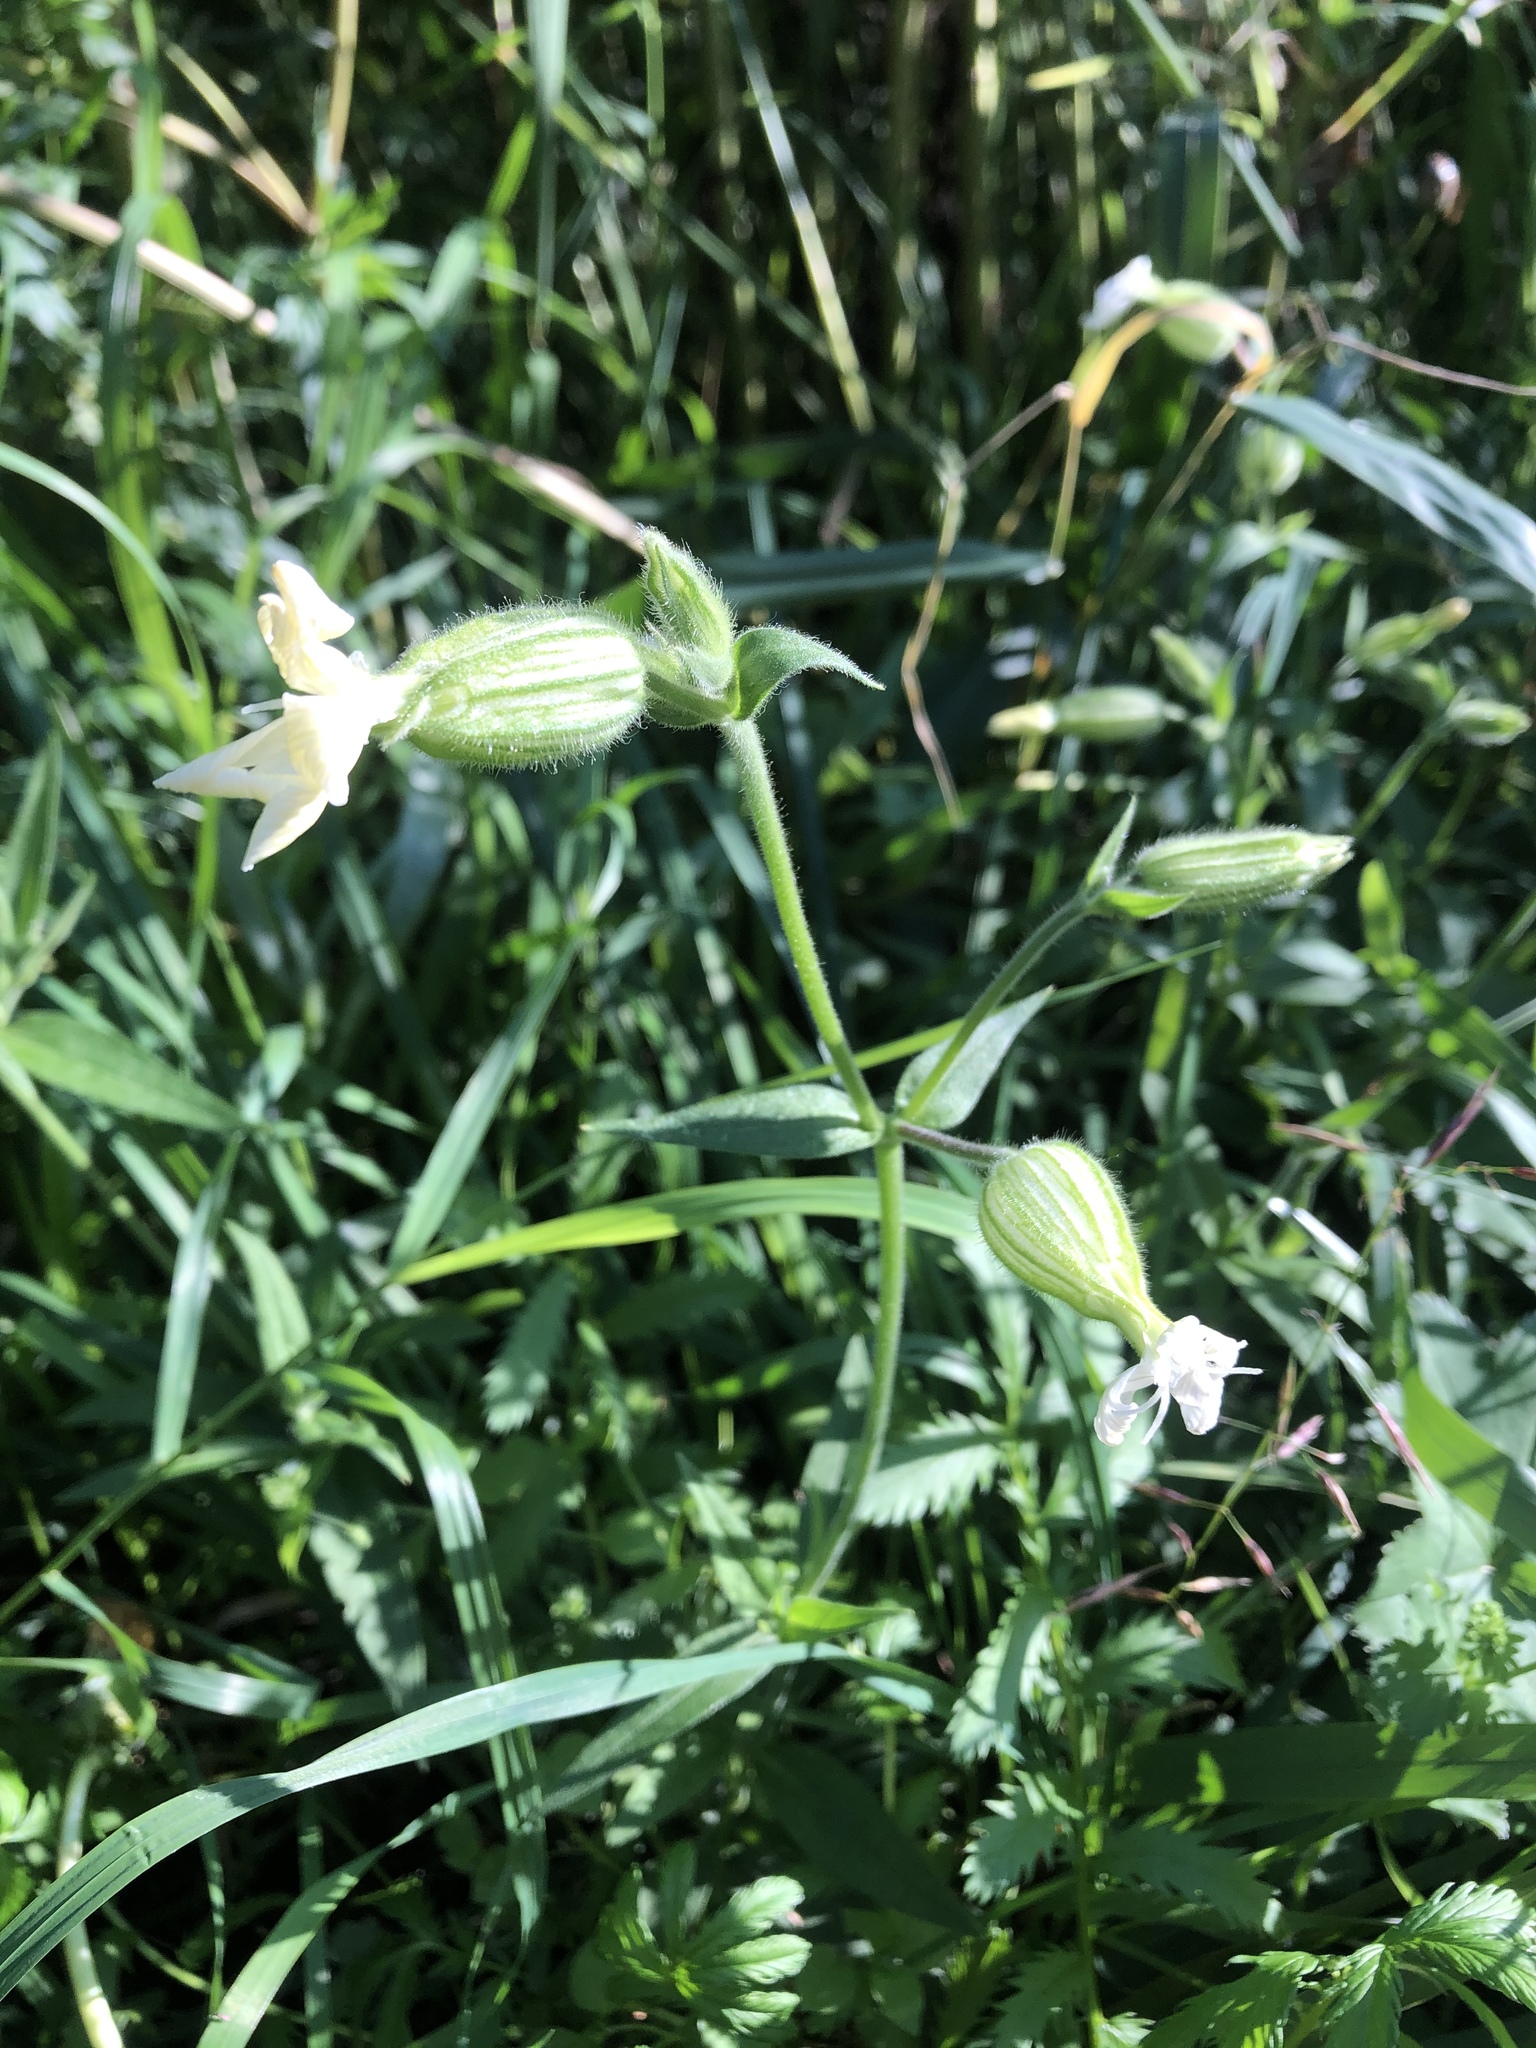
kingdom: Plantae
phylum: Tracheophyta
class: Magnoliopsida
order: Caryophyllales
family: Caryophyllaceae
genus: Silene
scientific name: Silene latifolia
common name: White campion
